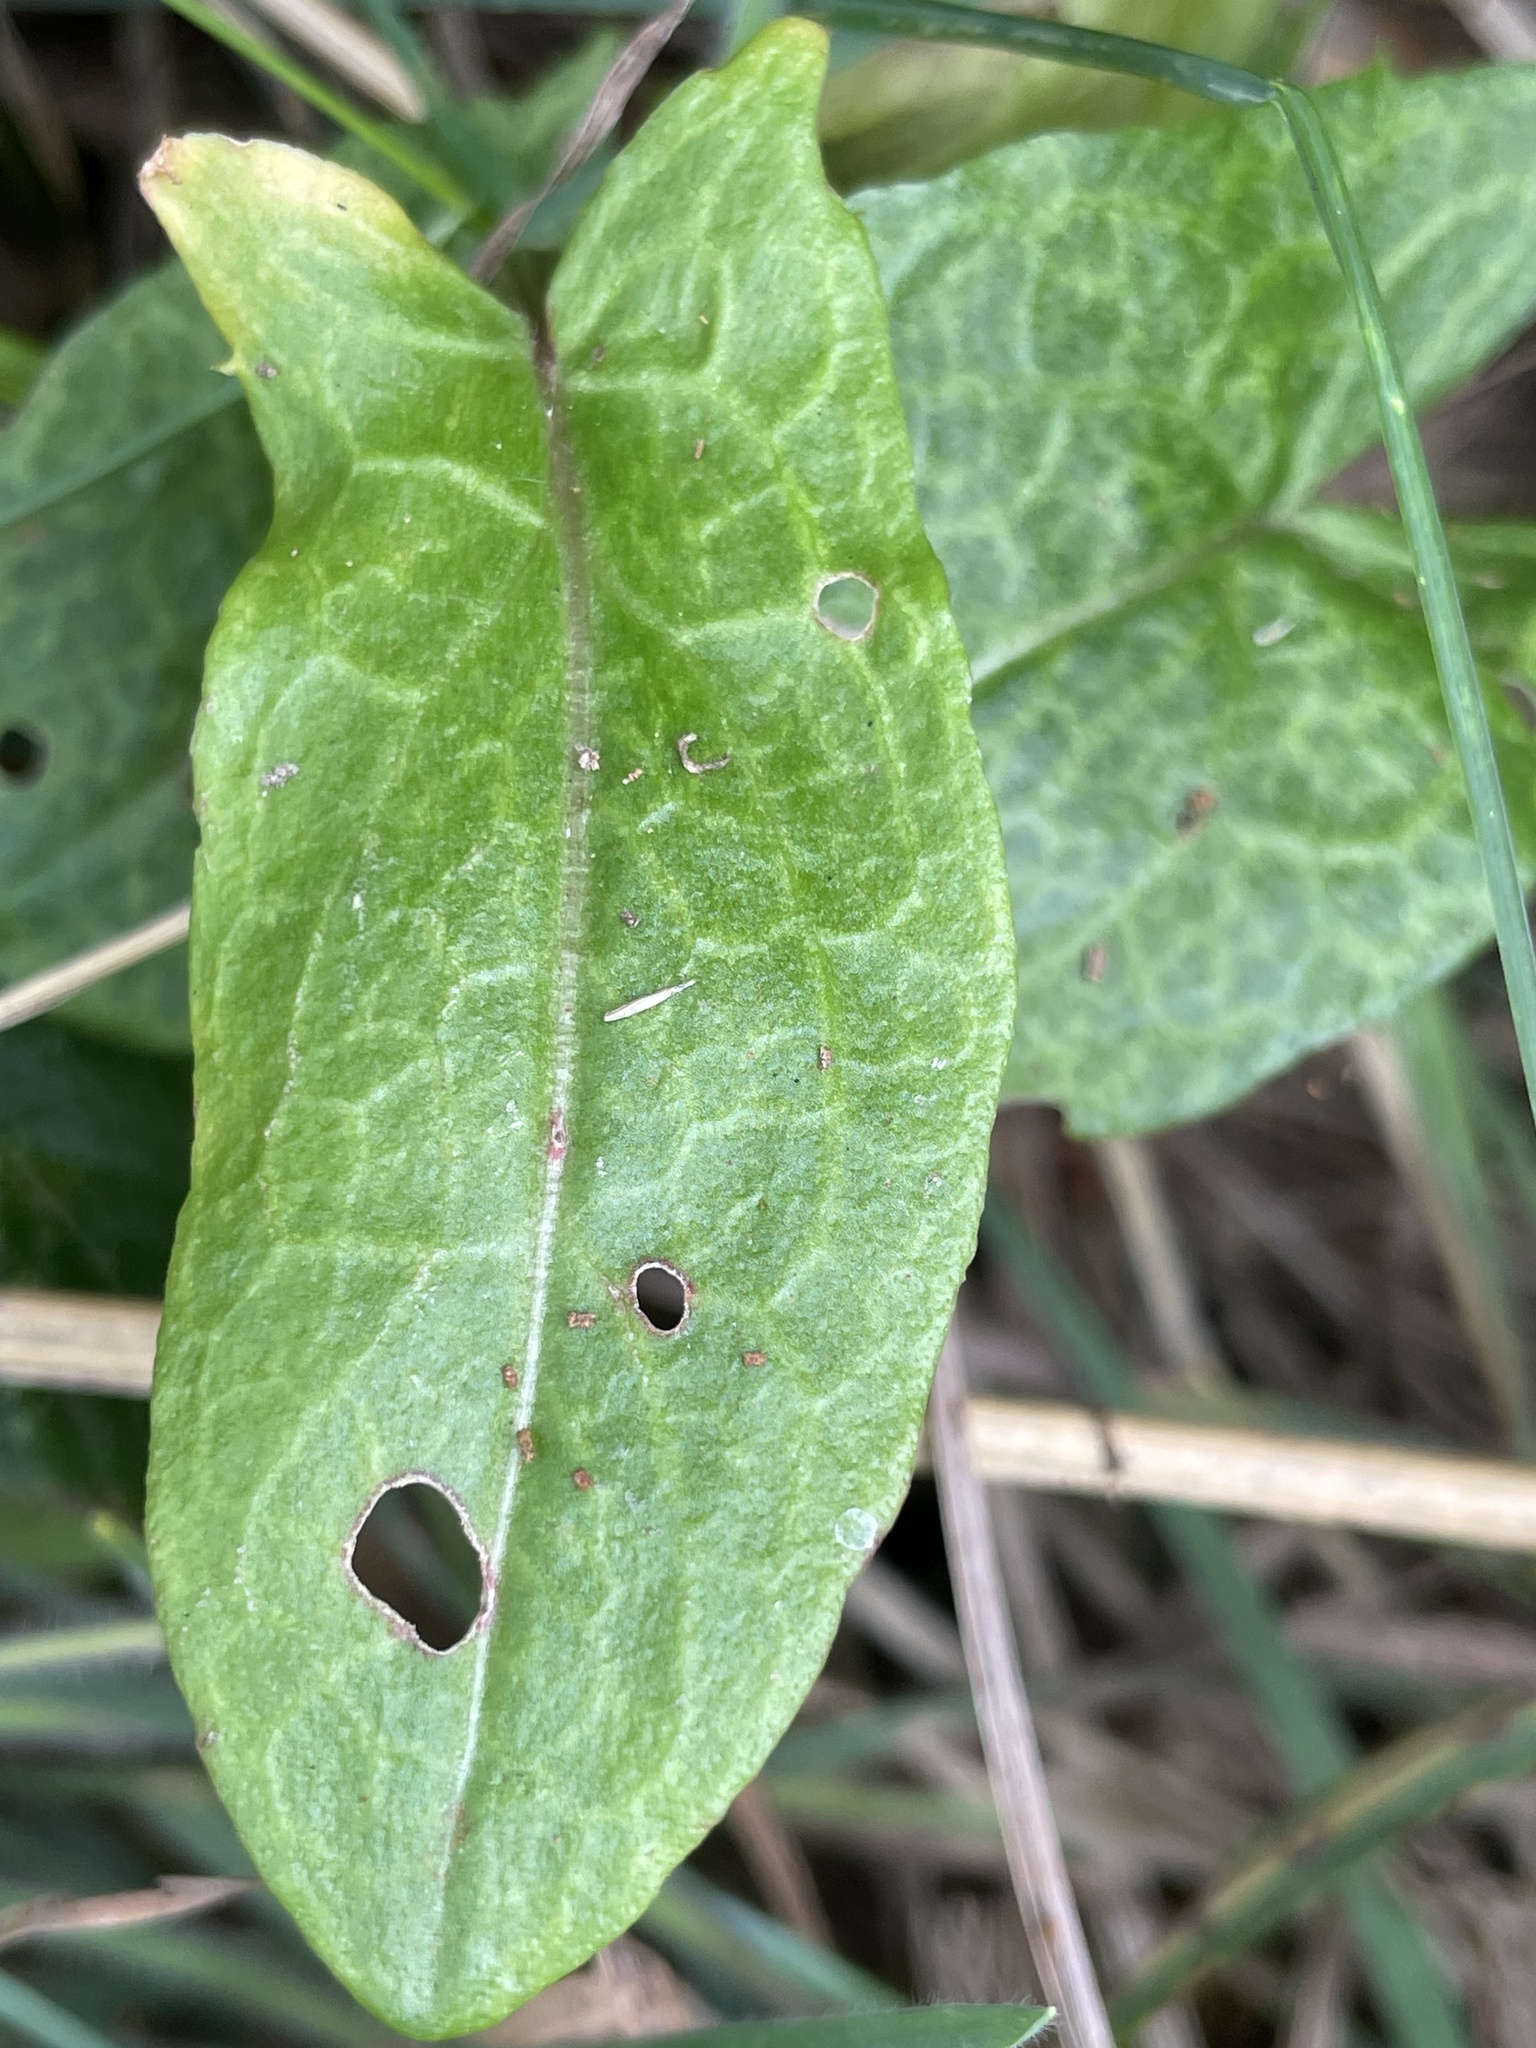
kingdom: Plantae
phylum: Tracheophyta
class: Magnoliopsida
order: Caryophyllales
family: Polygonaceae
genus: Rumex
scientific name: Rumex acetosa
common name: Garden sorrel
